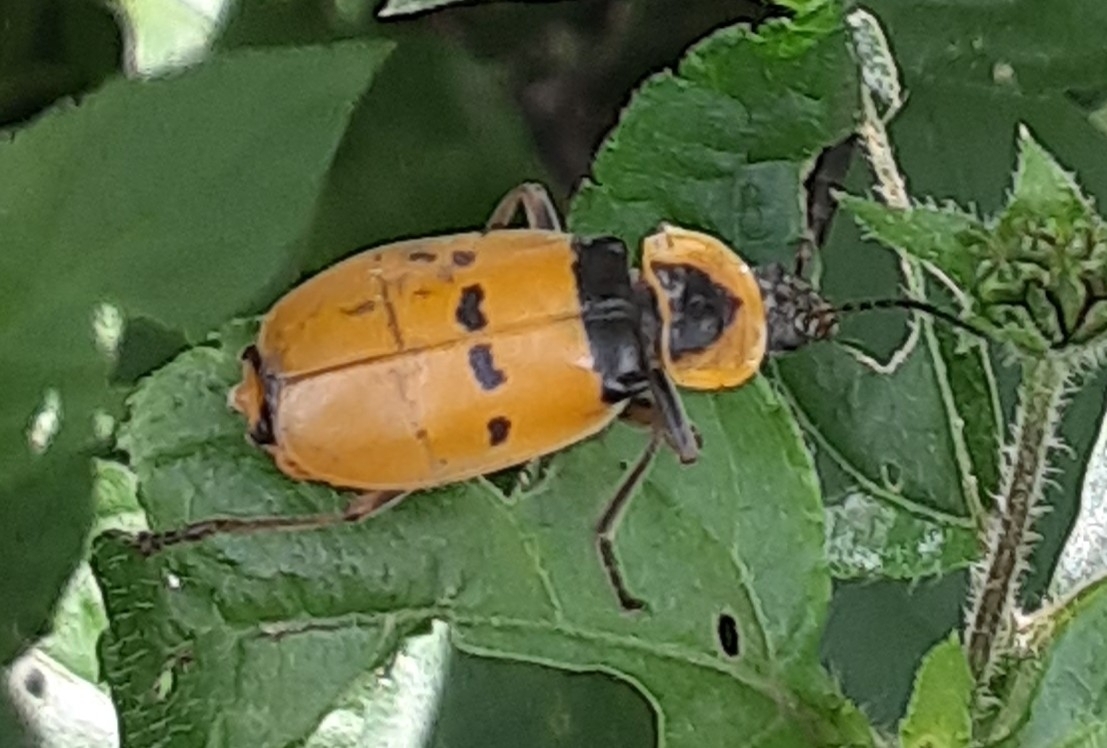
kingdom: Animalia
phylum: Arthropoda
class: Insecta
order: Coleoptera
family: Cantharidae
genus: Chauliognathus
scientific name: Chauliognathus
